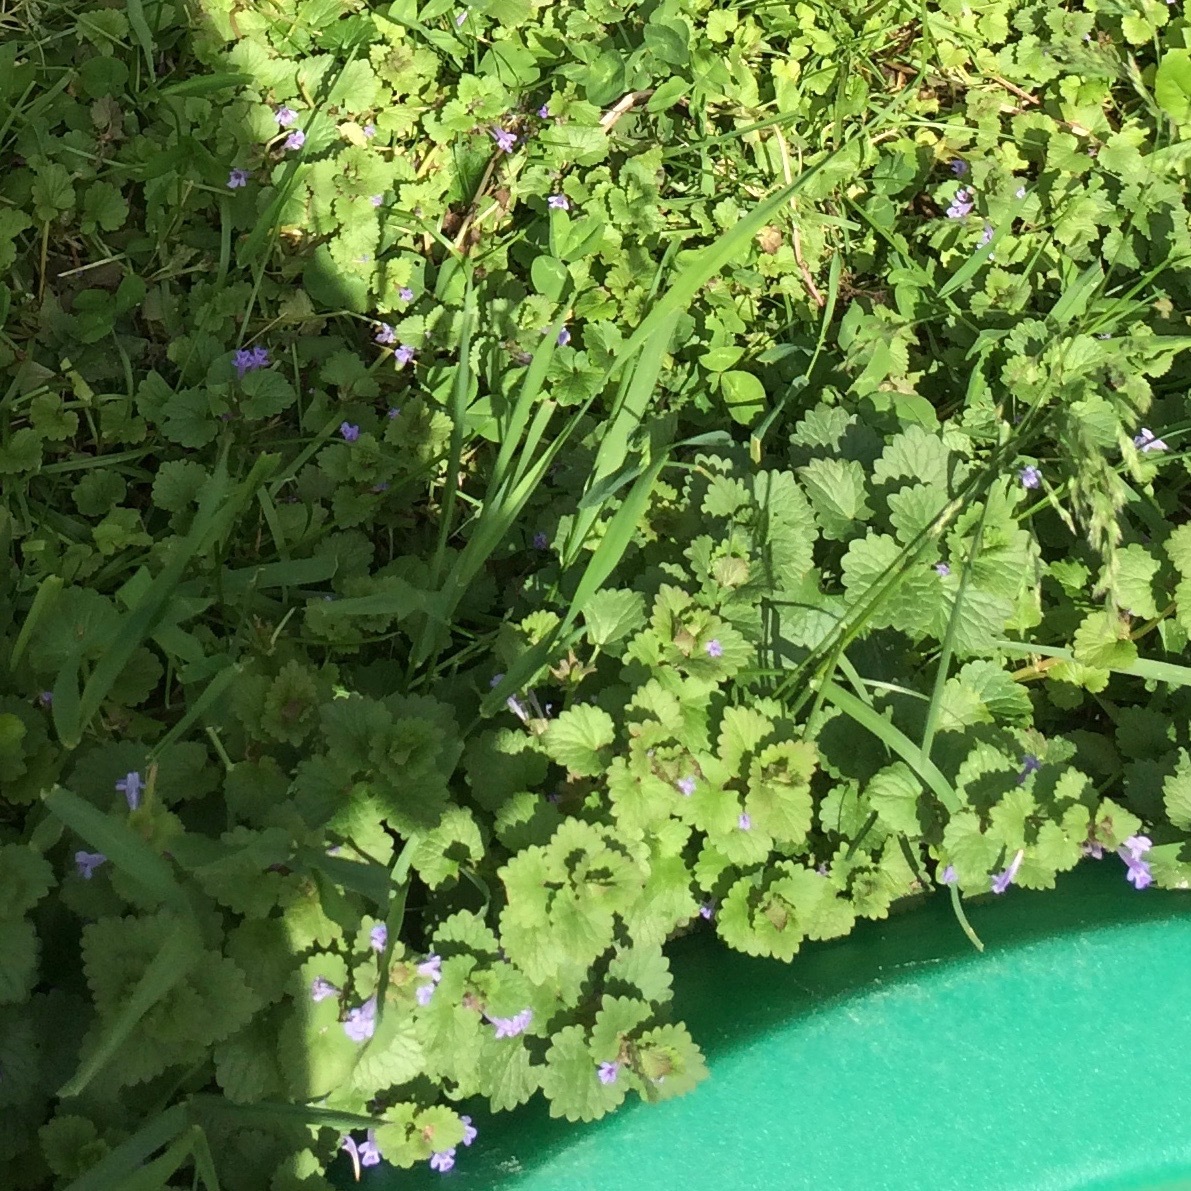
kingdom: Plantae
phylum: Tracheophyta
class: Magnoliopsida
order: Lamiales
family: Lamiaceae
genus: Glechoma
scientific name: Glechoma hederacea
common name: Ground ivy
